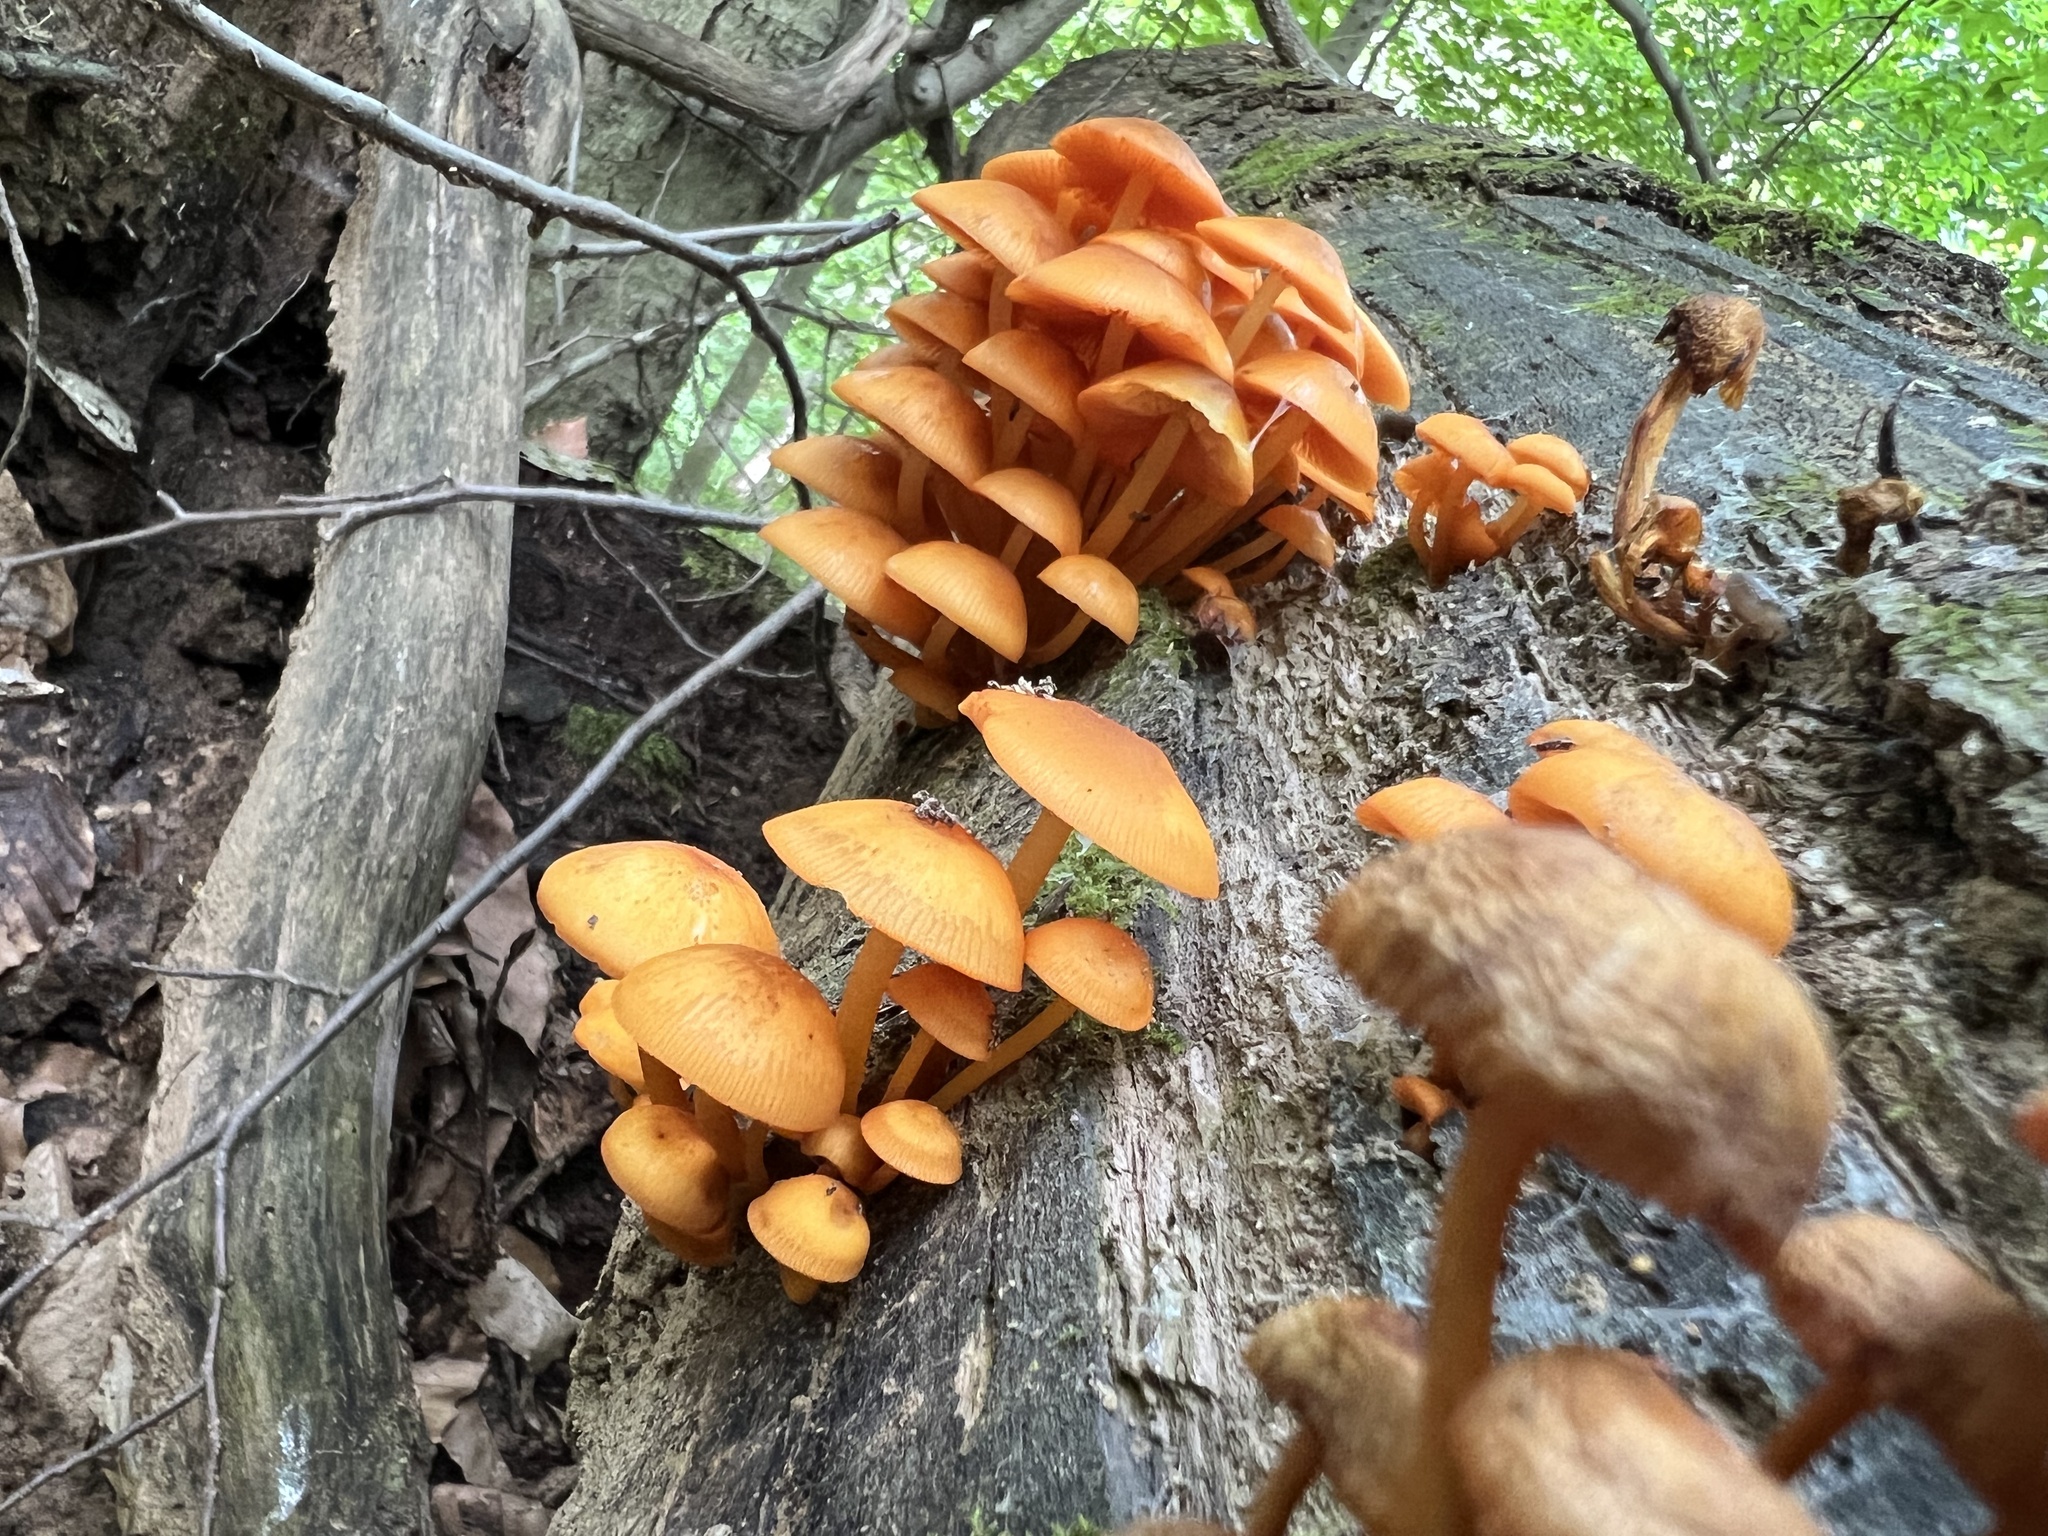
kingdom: Fungi
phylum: Basidiomycota
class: Agaricomycetes
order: Agaricales
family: Mycenaceae
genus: Mycena
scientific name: Mycena leaiana
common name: Orange mycena
